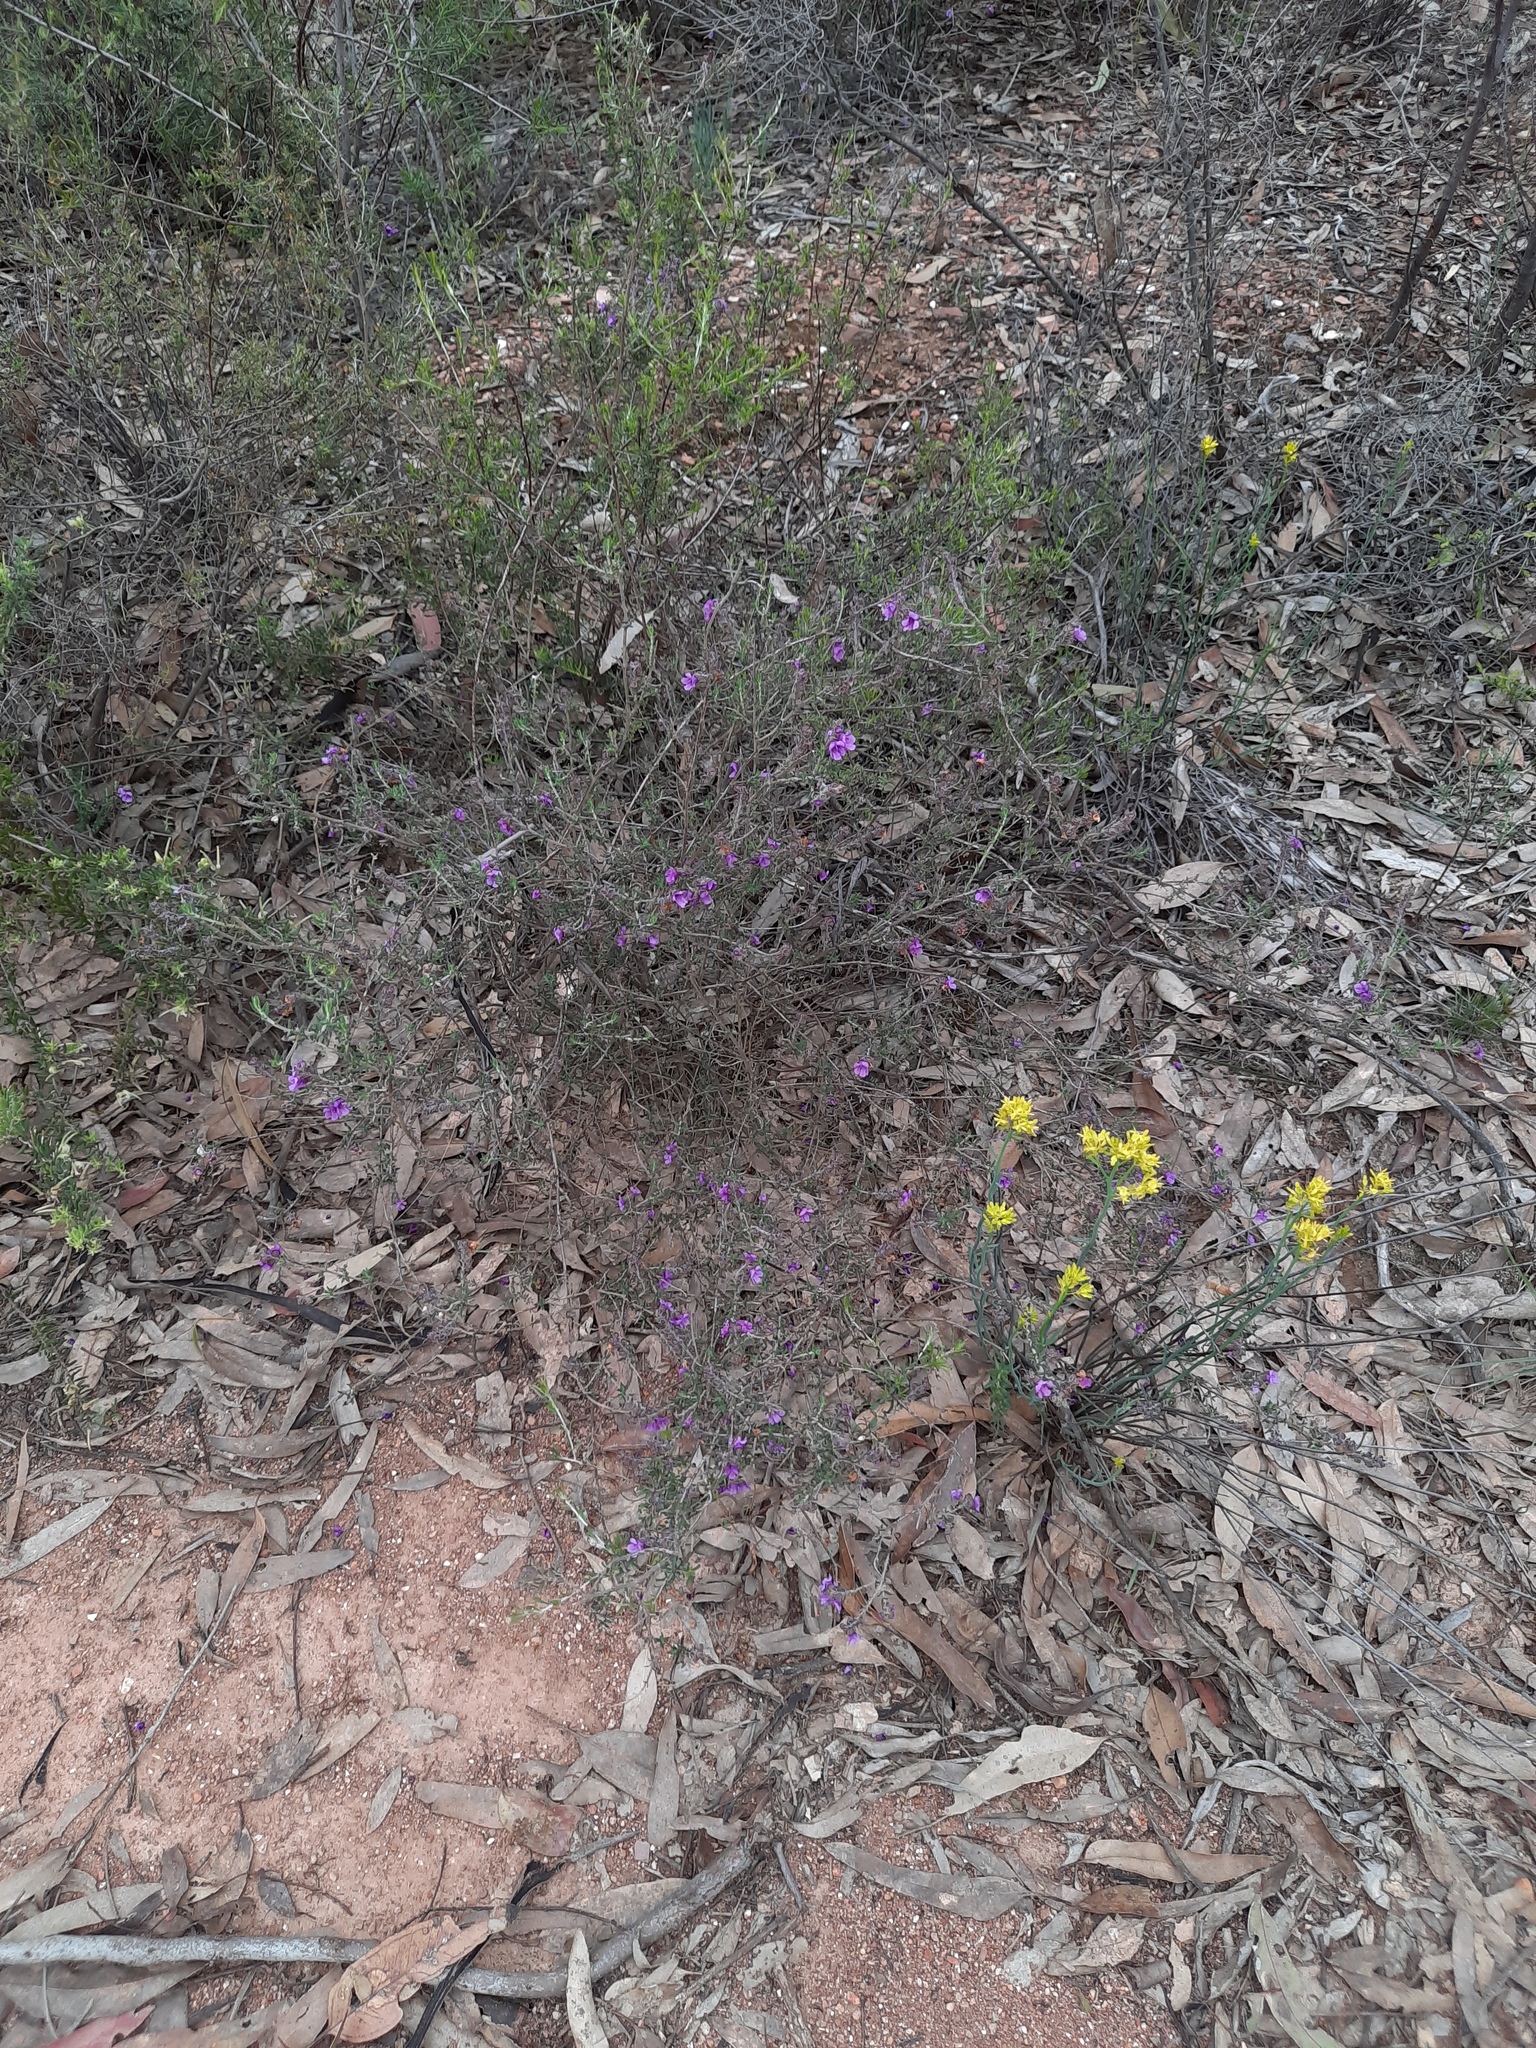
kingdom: Plantae
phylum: Tracheophyta
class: Magnoliopsida
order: Saxifragales
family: Haloragaceae
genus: Glischrocaryon
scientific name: Glischrocaryon behrii
